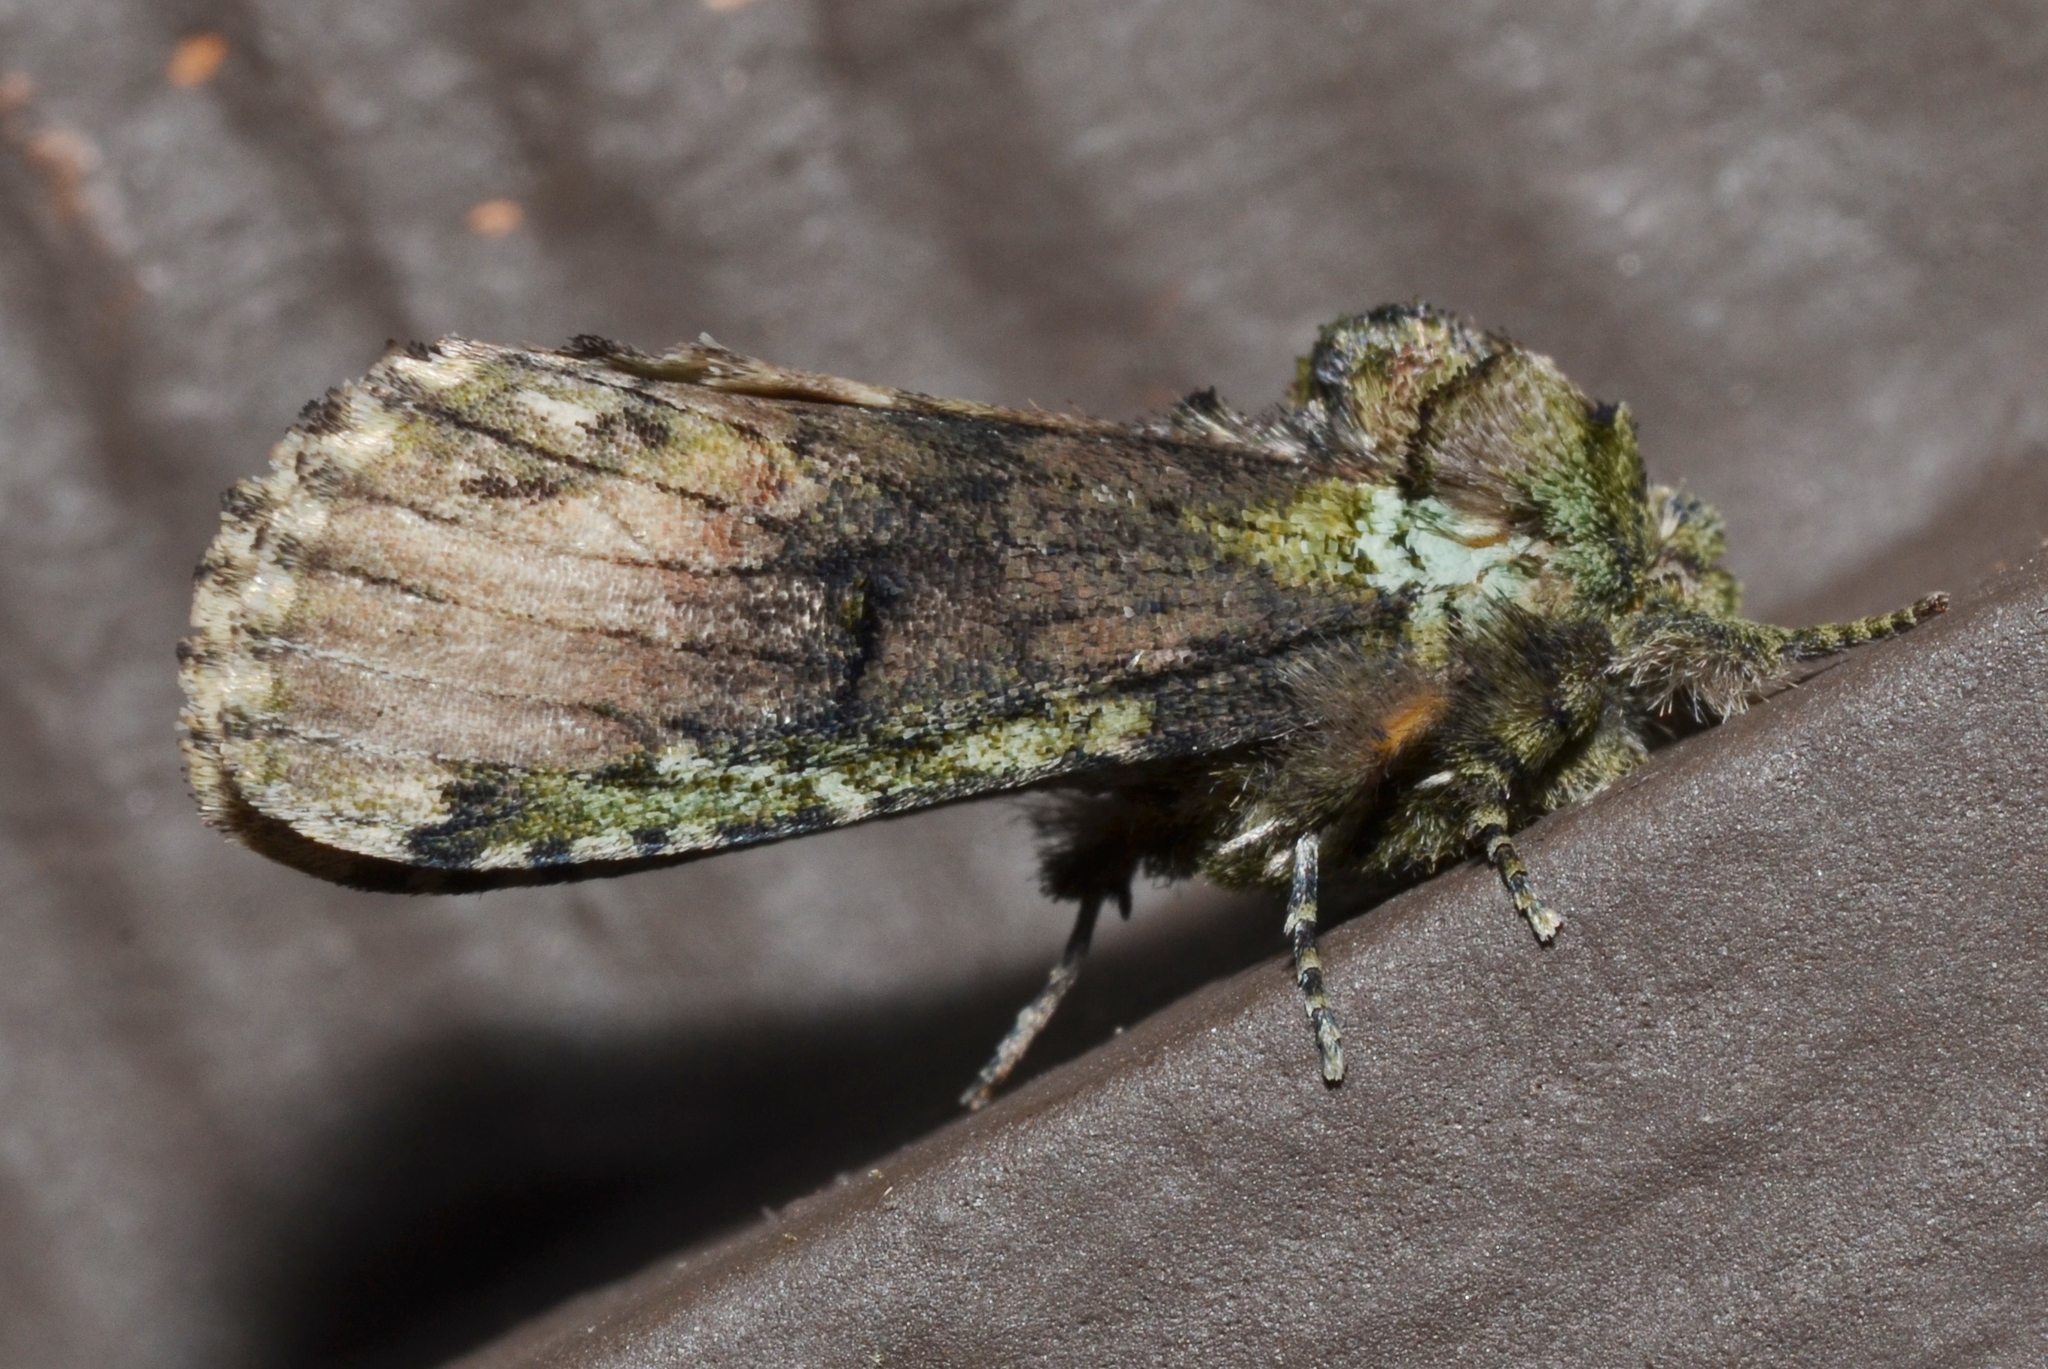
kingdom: Animalia
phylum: Arthropoda
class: Insecta
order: Lepidoptera
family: Notodontidae
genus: Schizura
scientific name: Schizura
